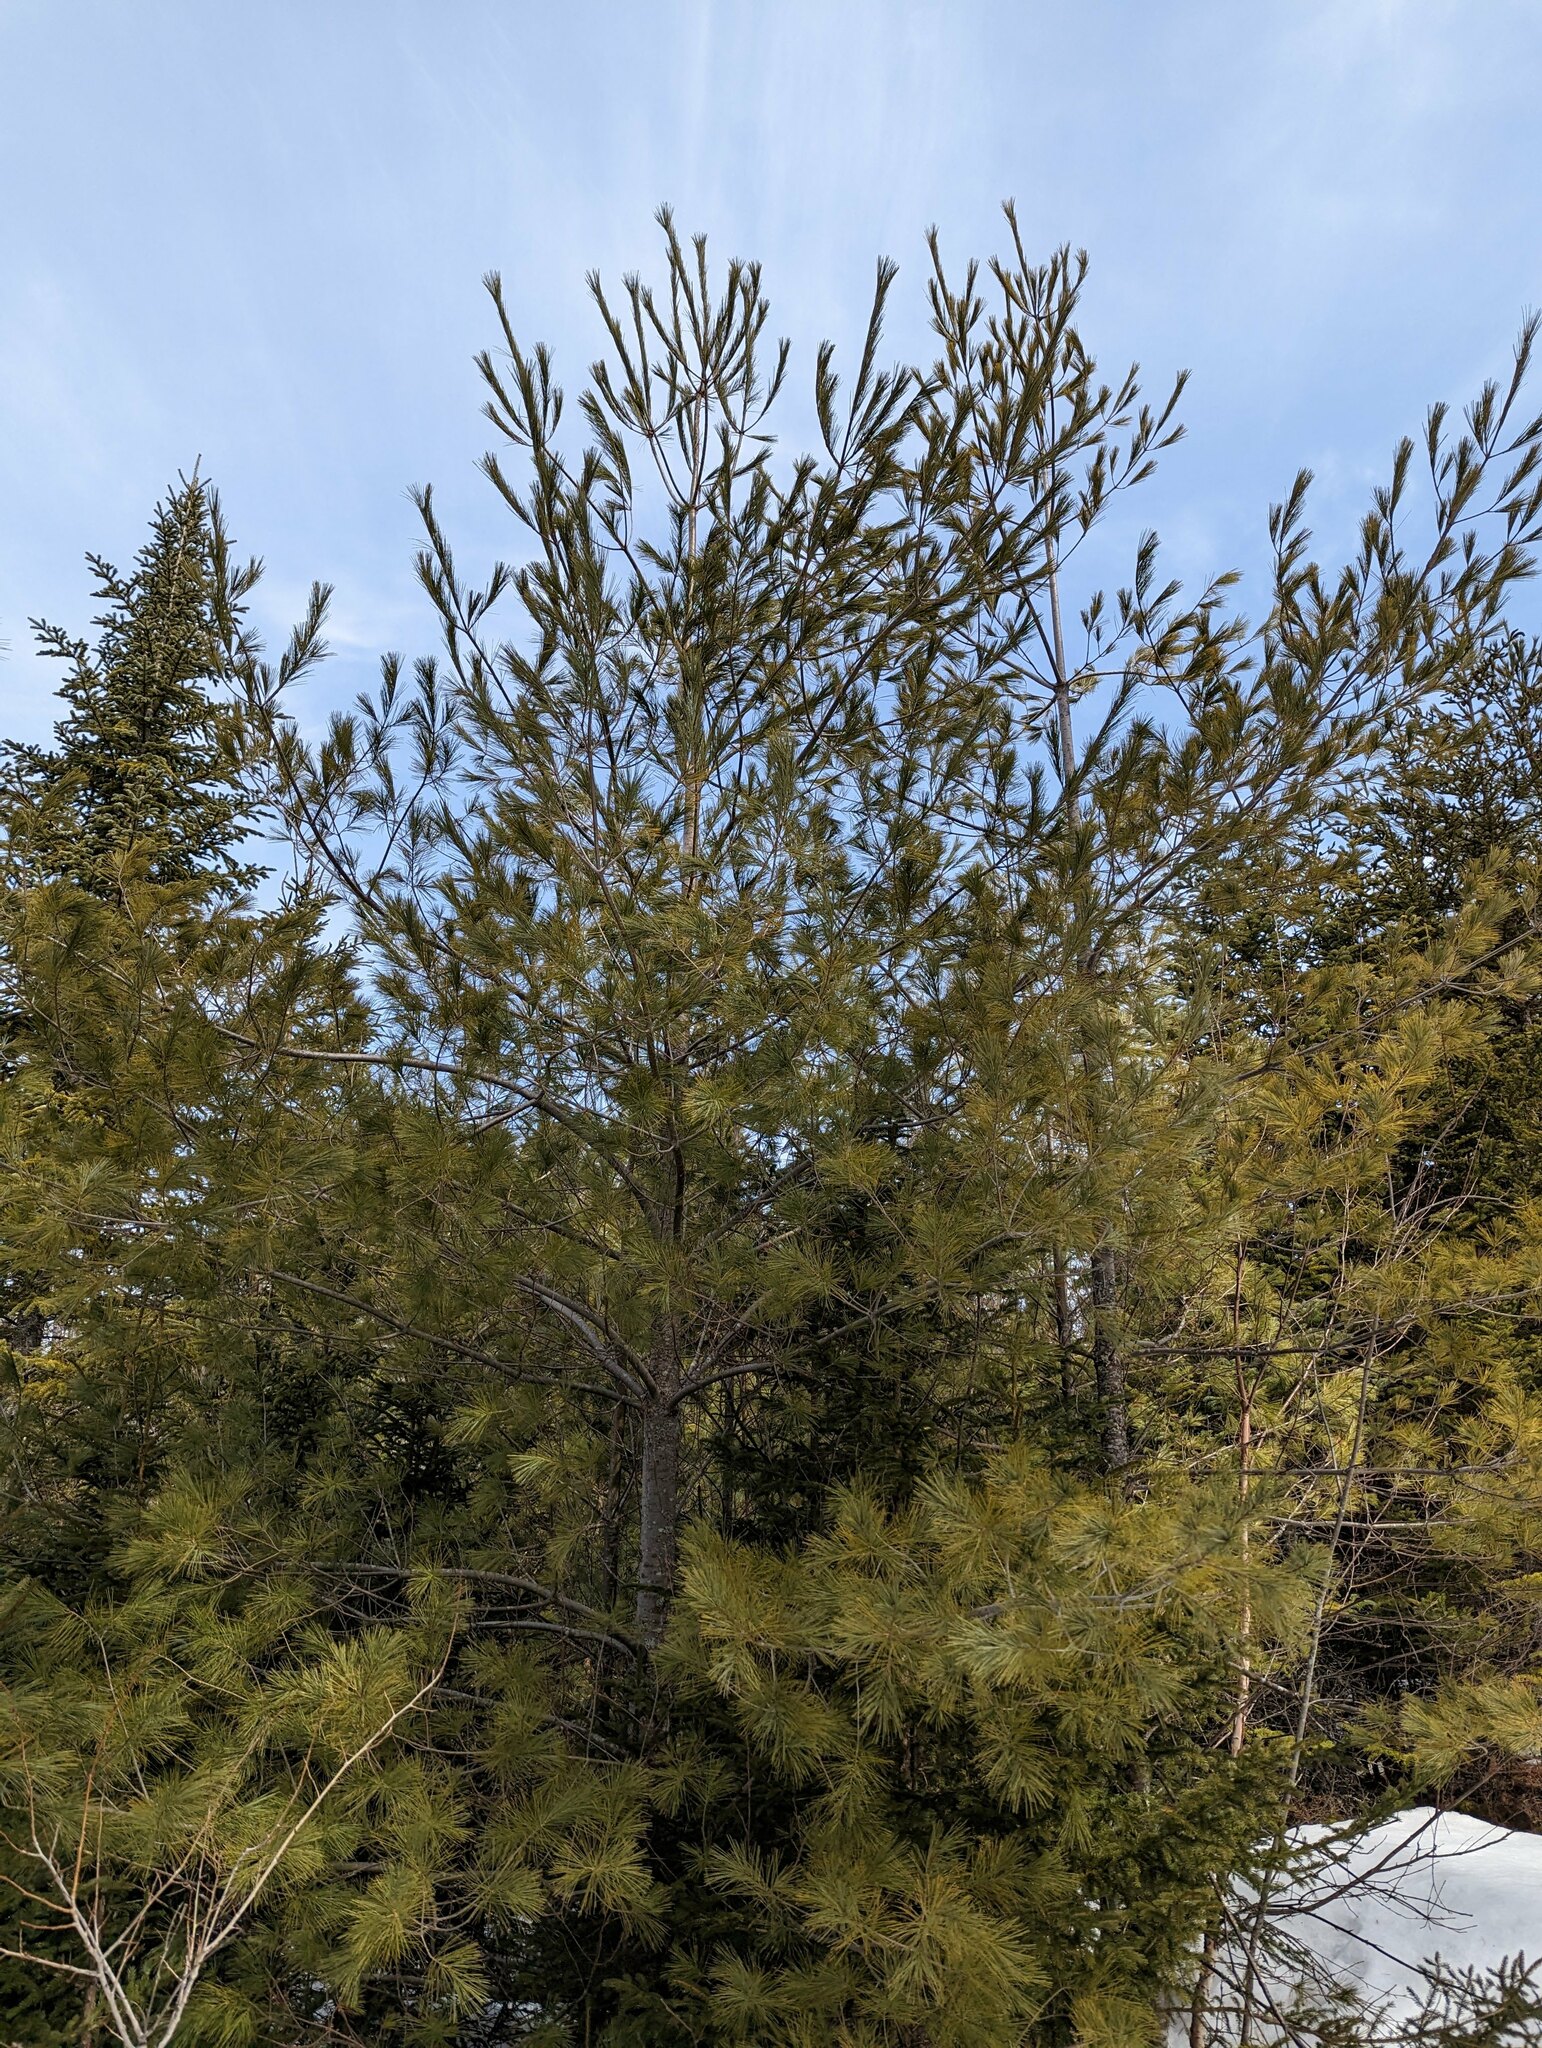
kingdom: Plantae
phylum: Tracheophyta
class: Pinopsida
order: Pinales
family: Pinaceae
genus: Pinus
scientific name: Pinus strobus
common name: Weymouth pine
